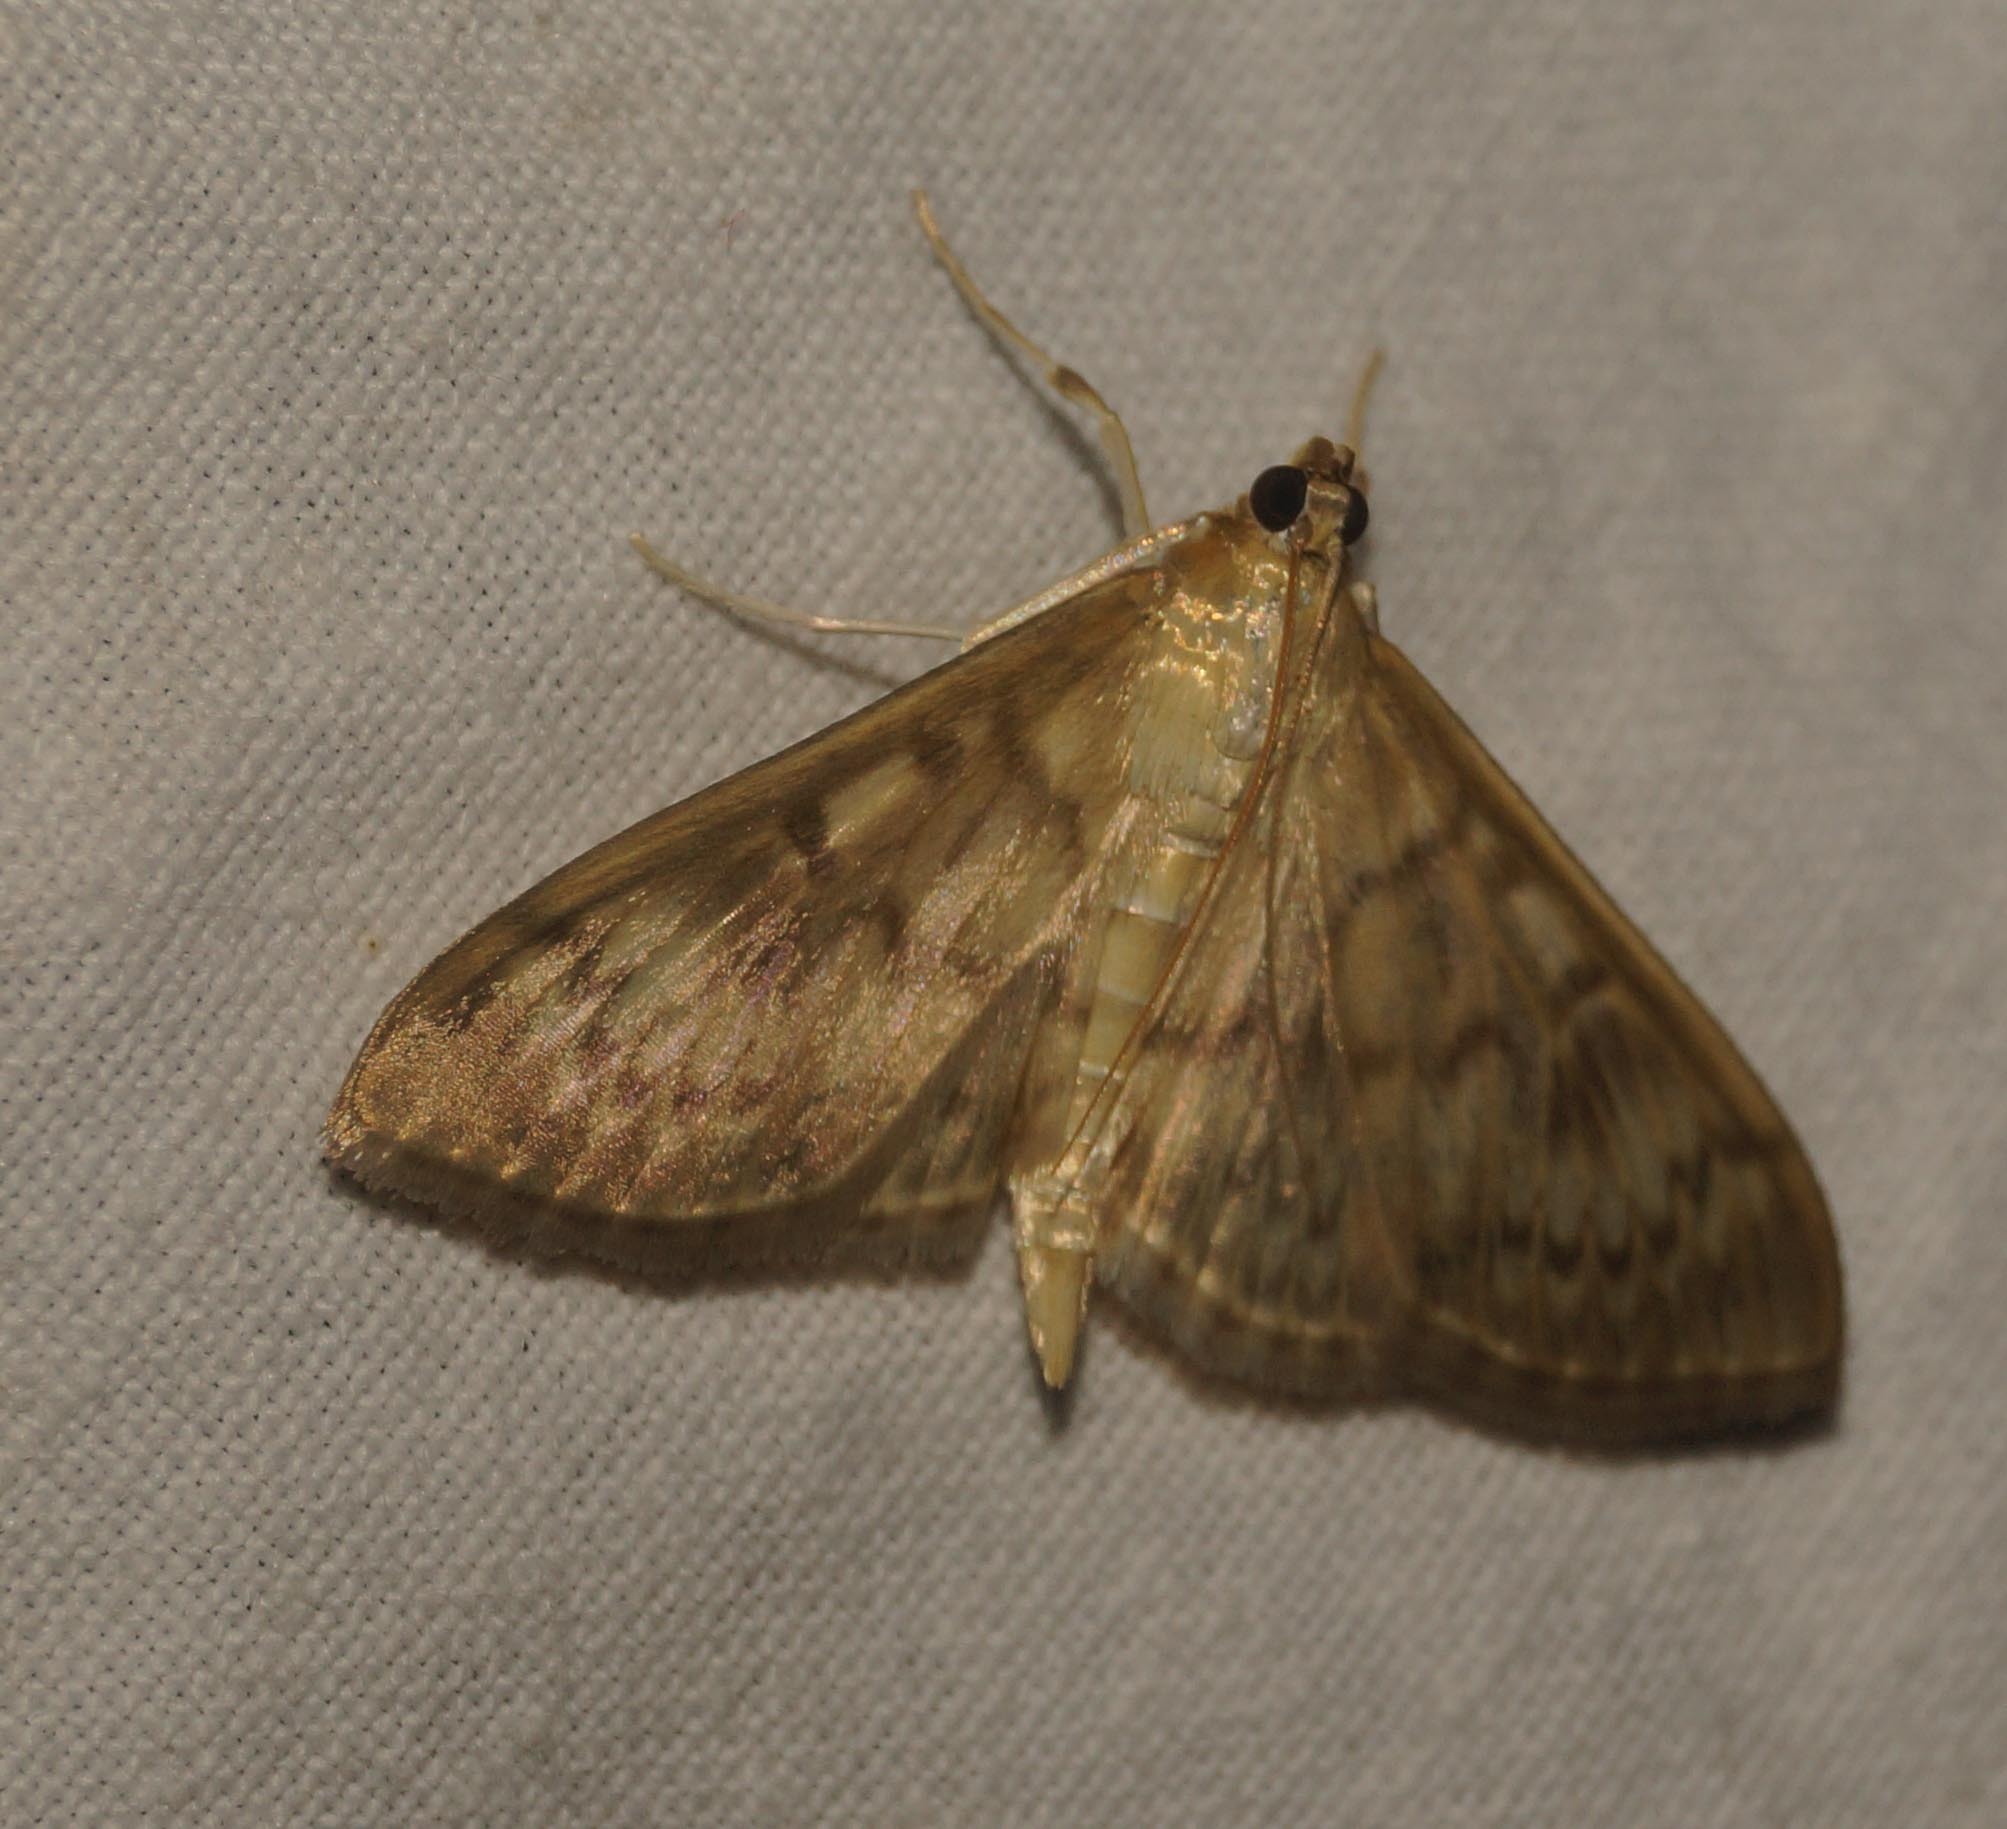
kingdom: Animalia
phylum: Arthropoda
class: Insecta
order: Lepidoptera
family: Crambidae
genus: Patania
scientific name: Patania ruralis
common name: Mother of pearl
